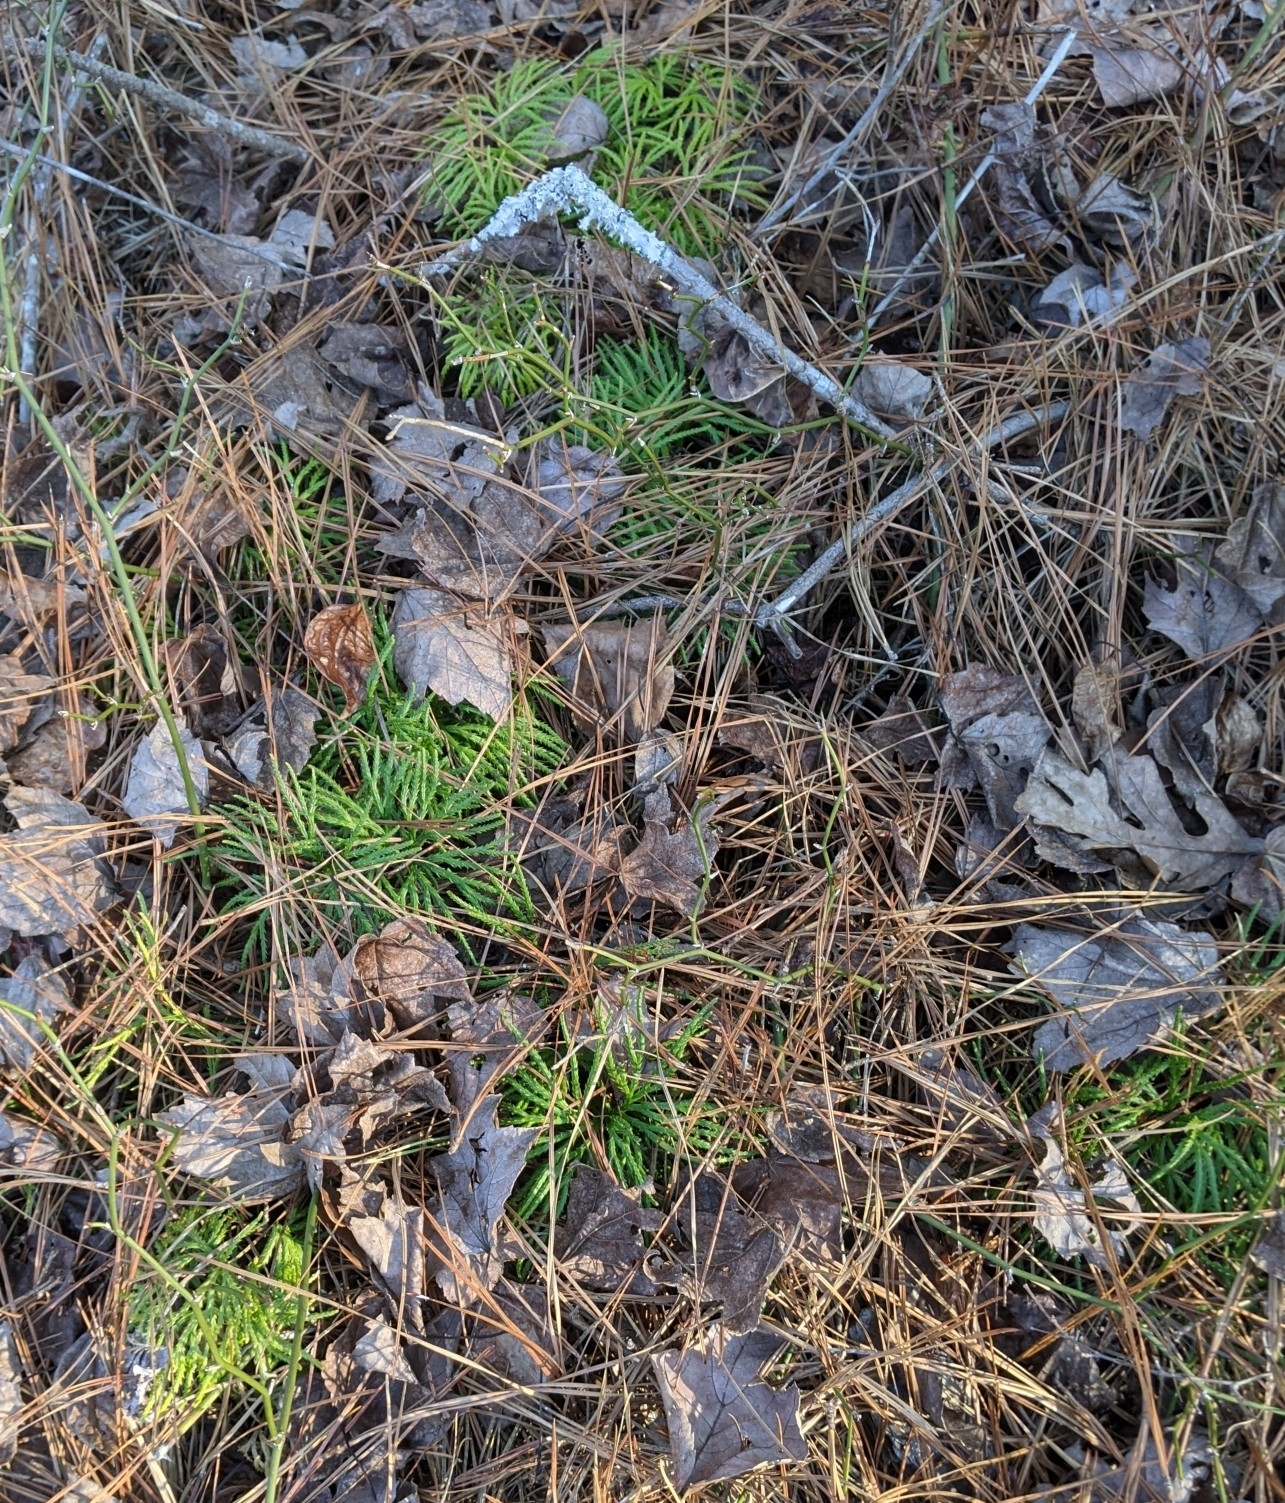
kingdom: Plantae
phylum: Tracheophyta
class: Lycopodiopsida
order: Lycopodiales
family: Lycopodiaceae
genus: Diphasiastrum
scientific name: Diphasiastrum digitatum
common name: Southern running-pine
